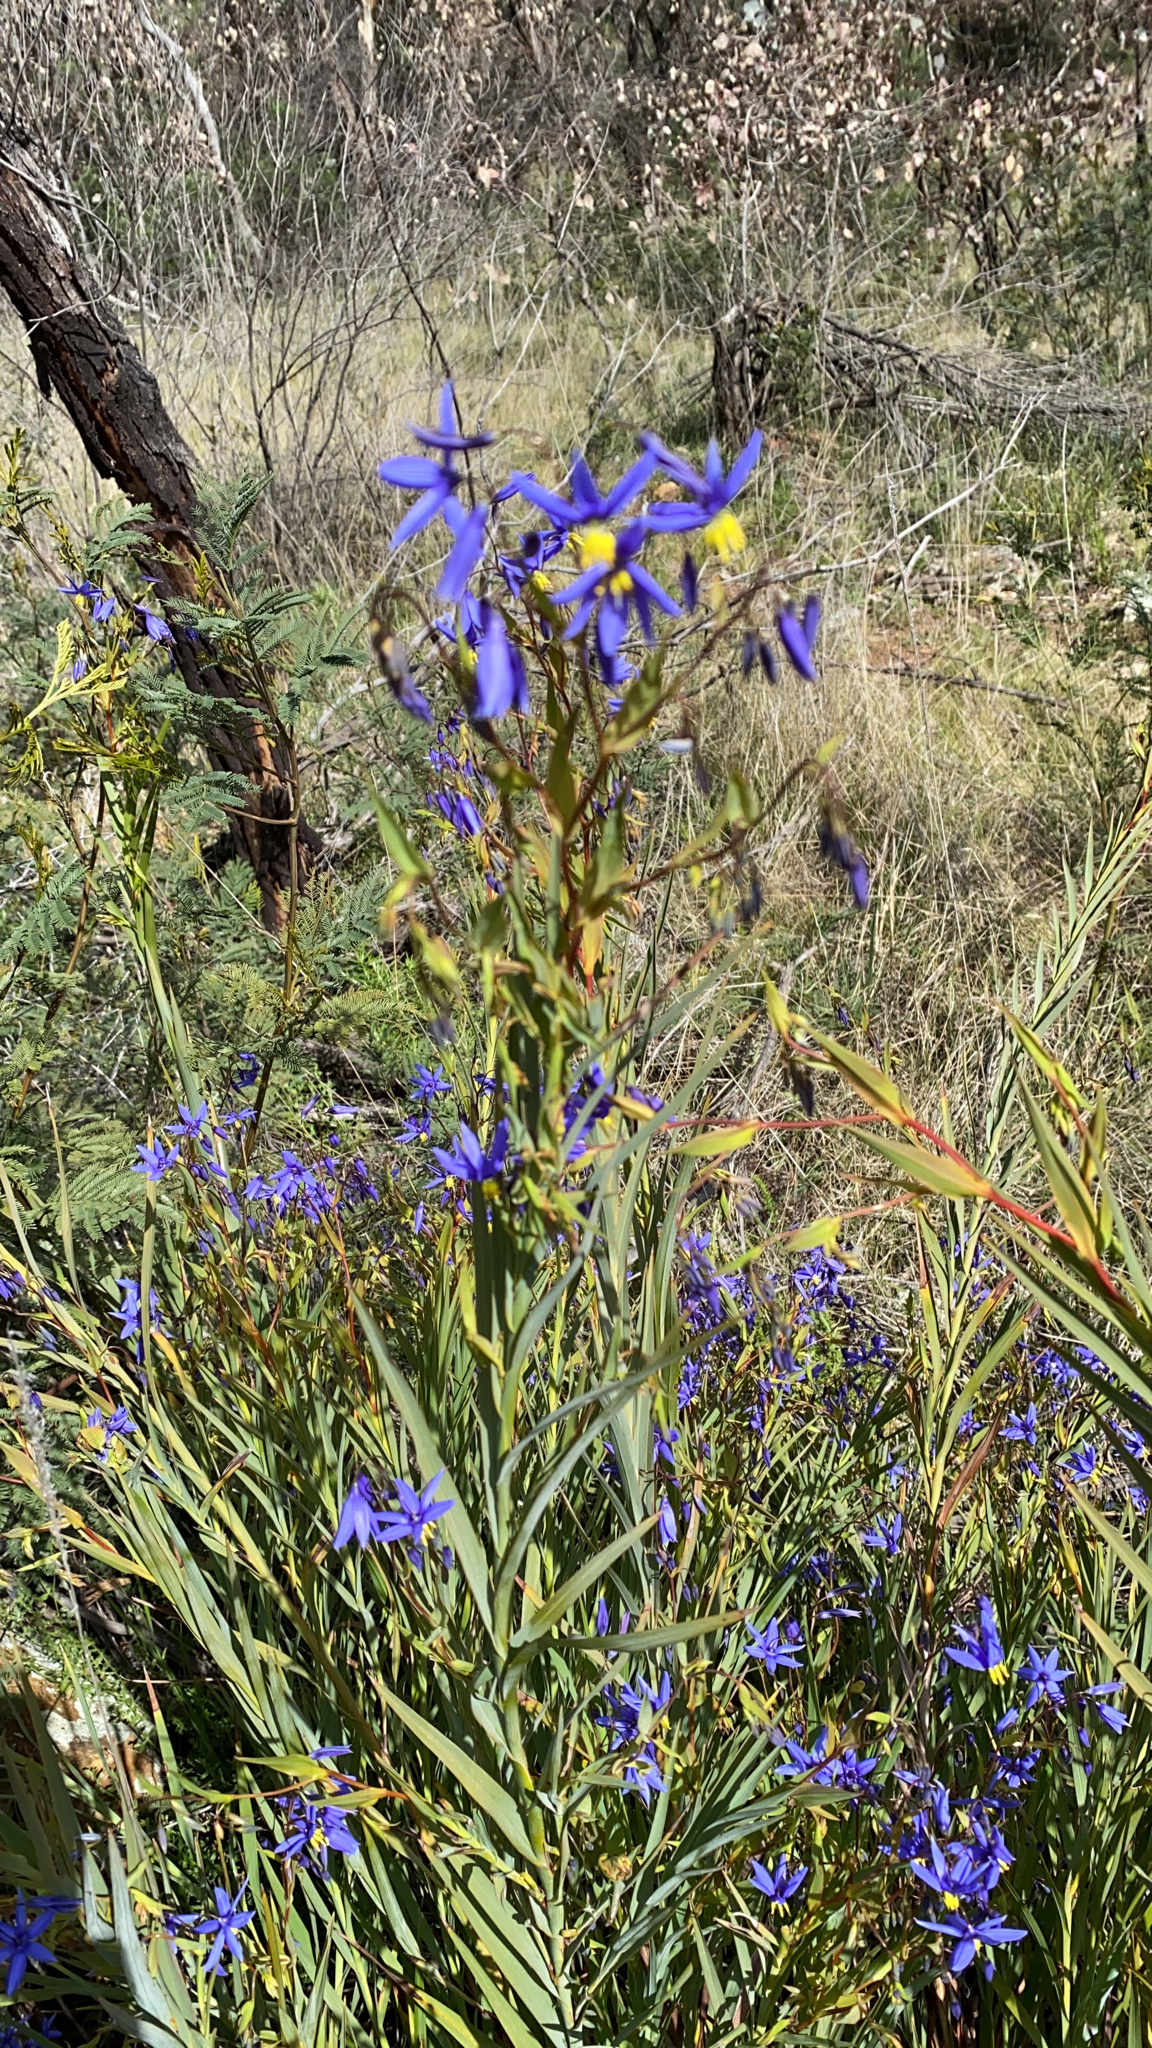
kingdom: Plantae
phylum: Tracheophyta
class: Liliopsida
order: Asparagales
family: Asphodelaceae
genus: Stypandra
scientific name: Stypandra glauca
